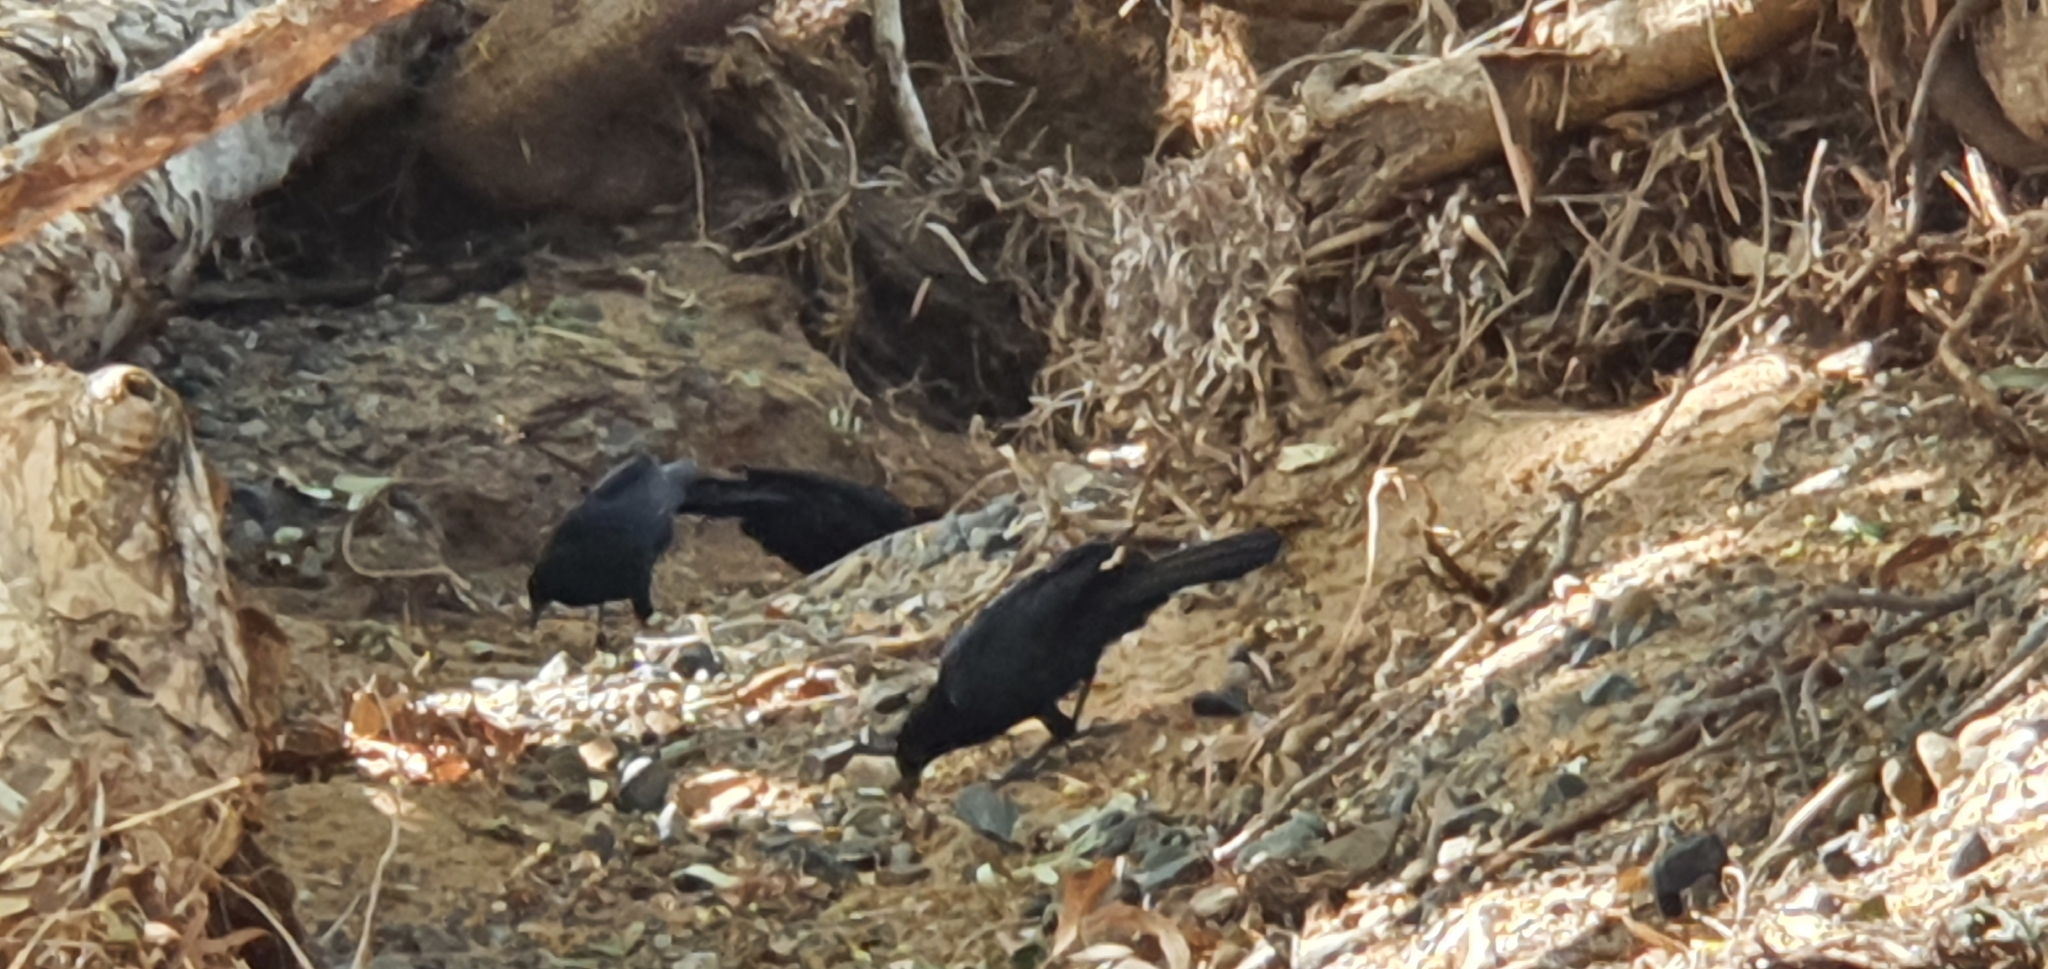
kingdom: Animalia
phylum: Chordata
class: Aves
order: Passeriformes
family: Corcoracidae
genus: Corcorax
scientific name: Corcorax melanoramphos
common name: White-winged chough
